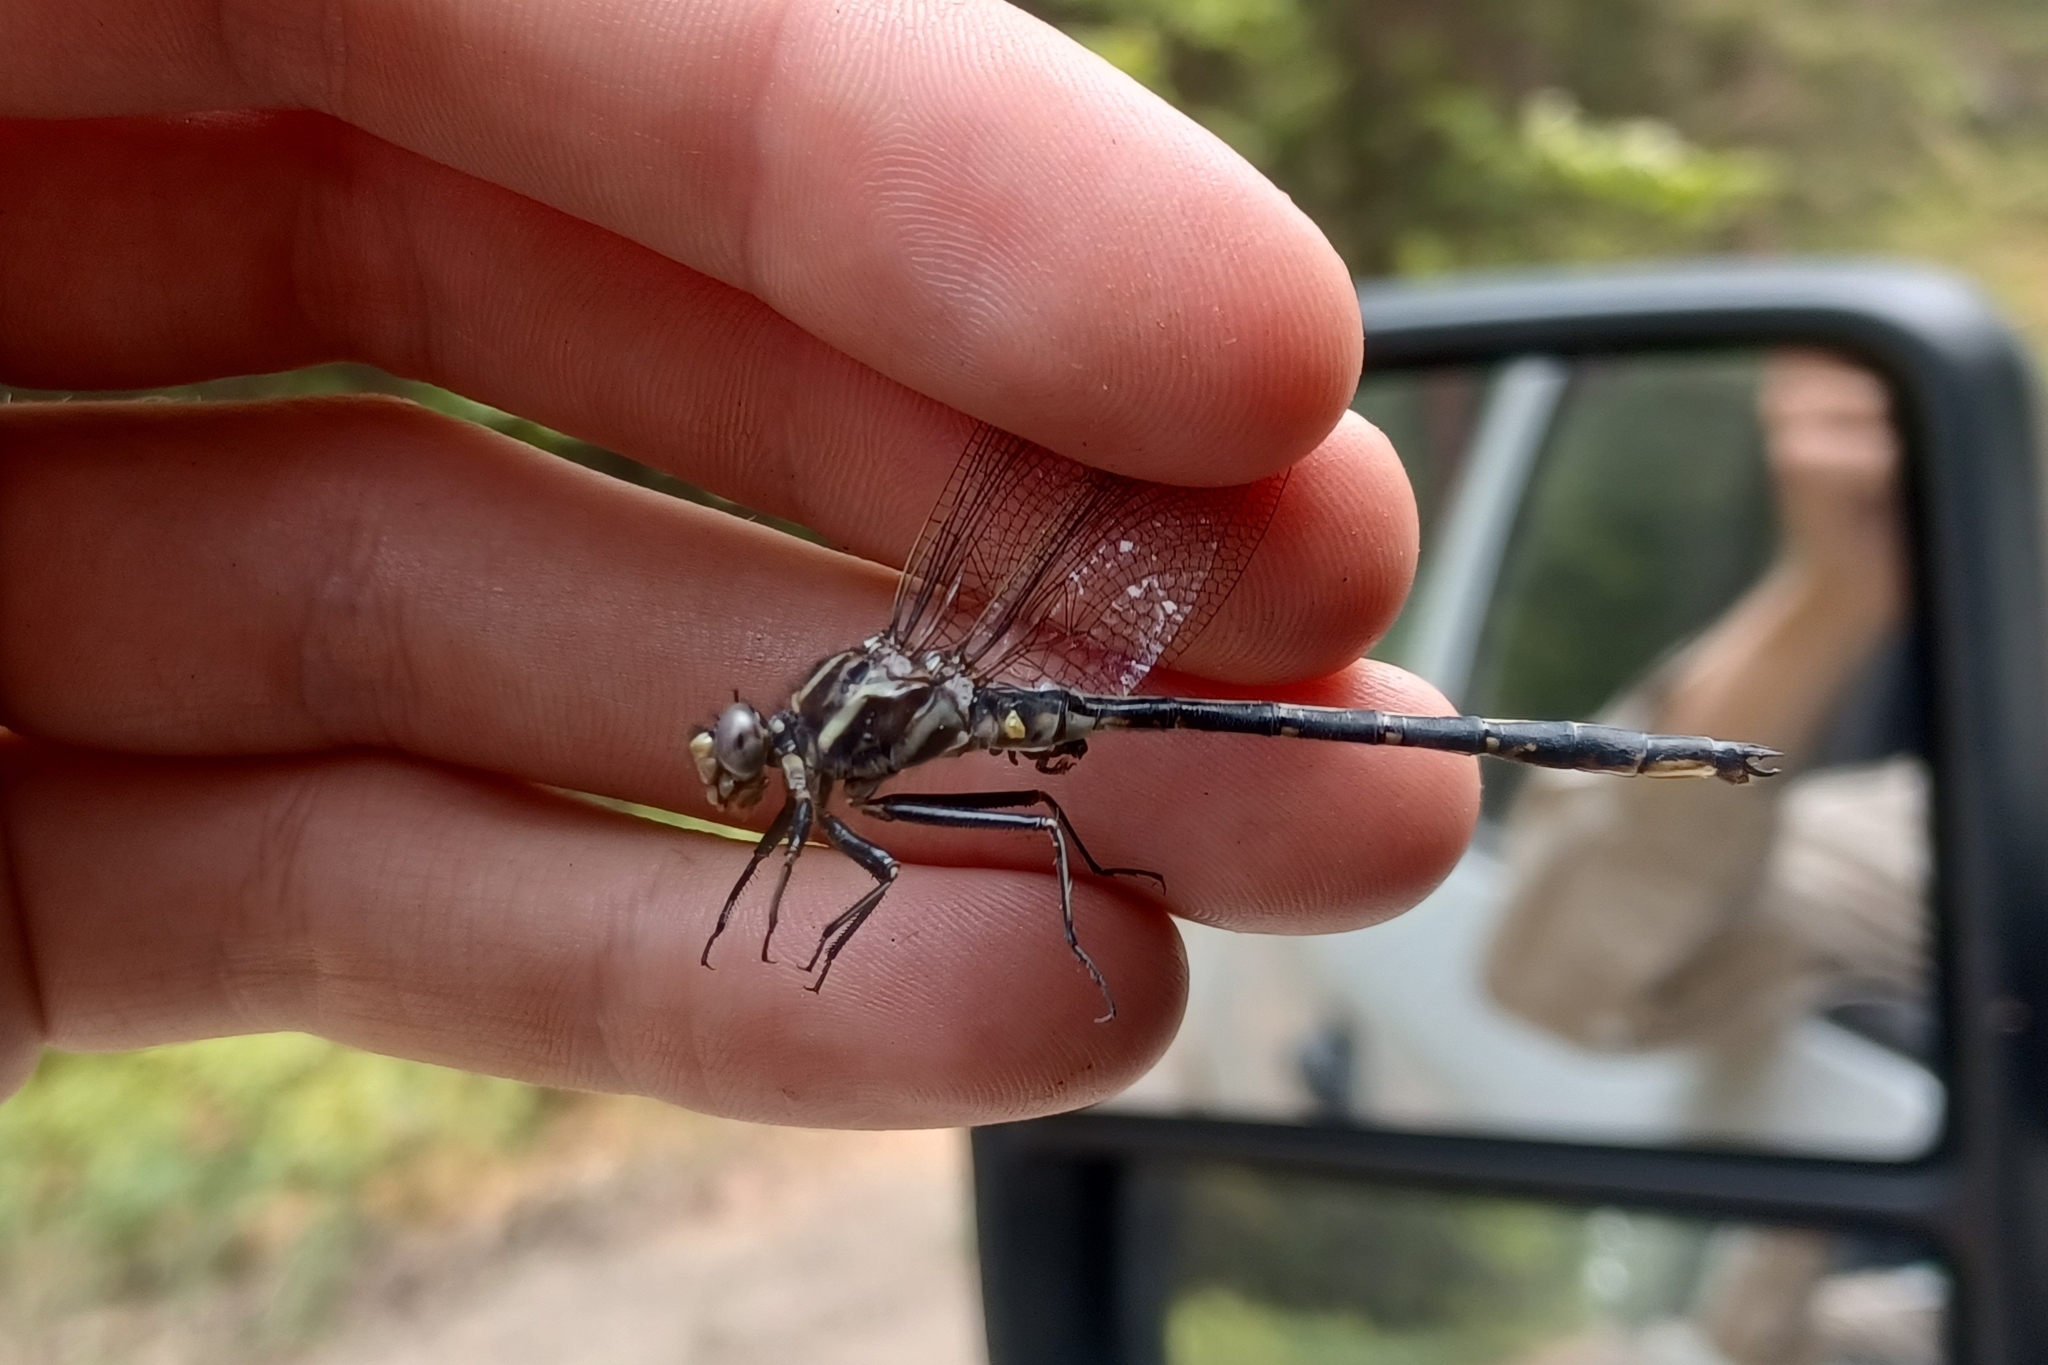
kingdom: Animalia
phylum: Arthropoda
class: Insecta
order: Odonata
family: Gomphidae
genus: Phanogomphus
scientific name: Phanogomphus spicatus
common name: Dusky clubtail
